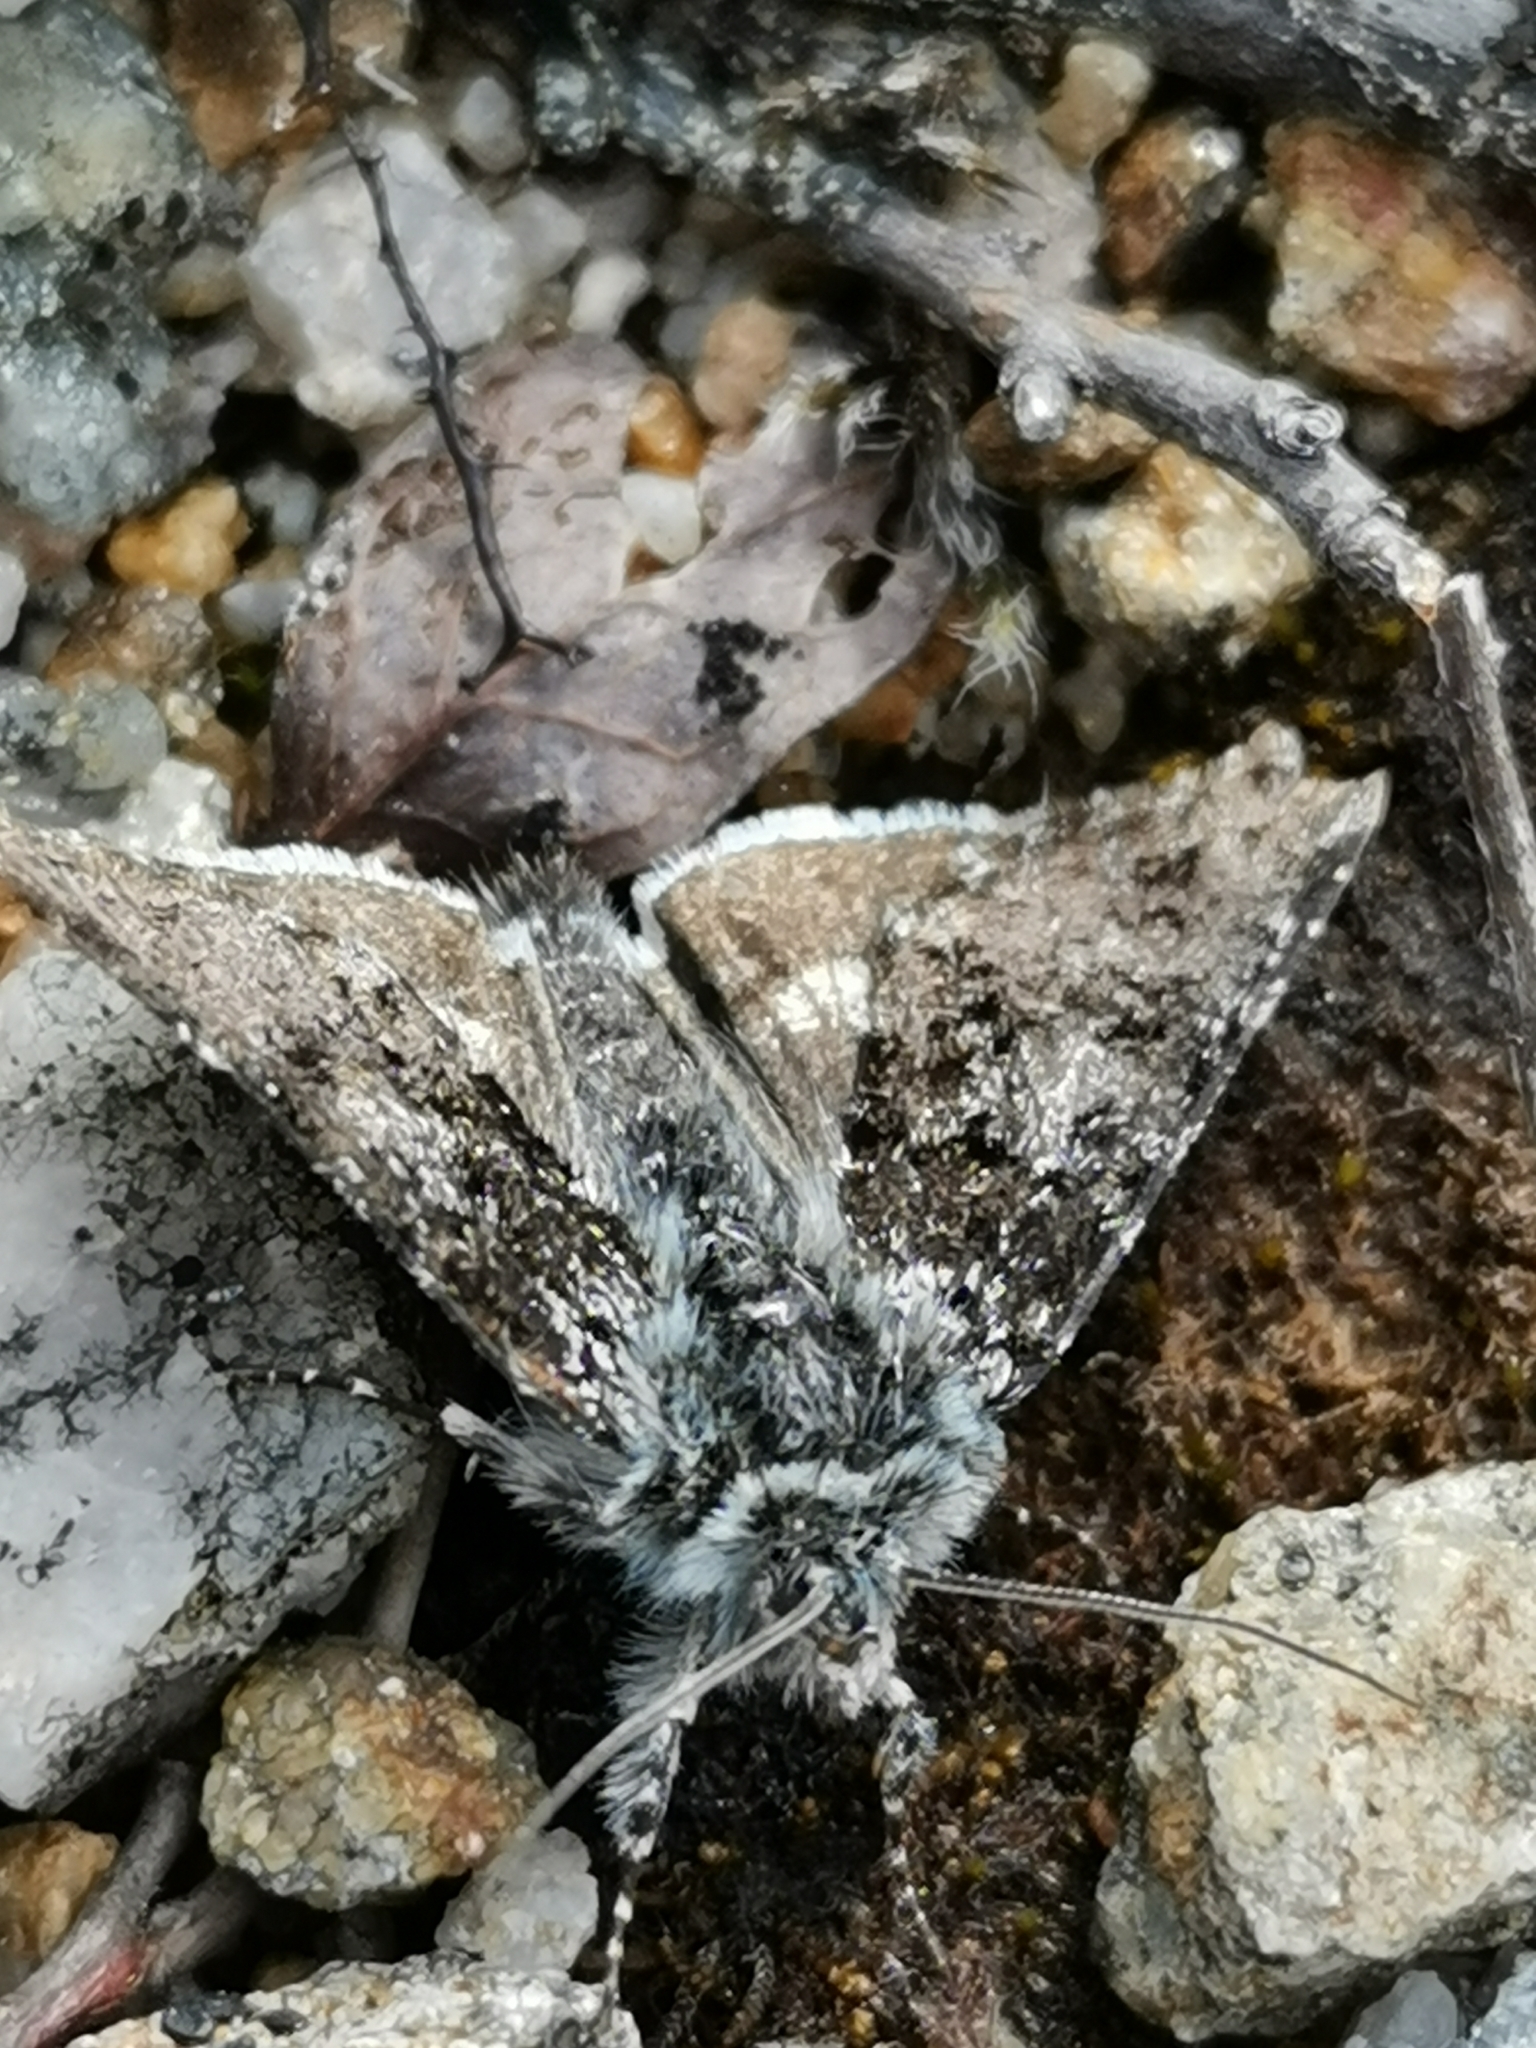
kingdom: Animalia
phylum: Arthropoda
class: Insecta
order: Lepidoptera
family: Noctuidae
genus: Anarta
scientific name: Anarta melanopa
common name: Broad-bordered white underwing
